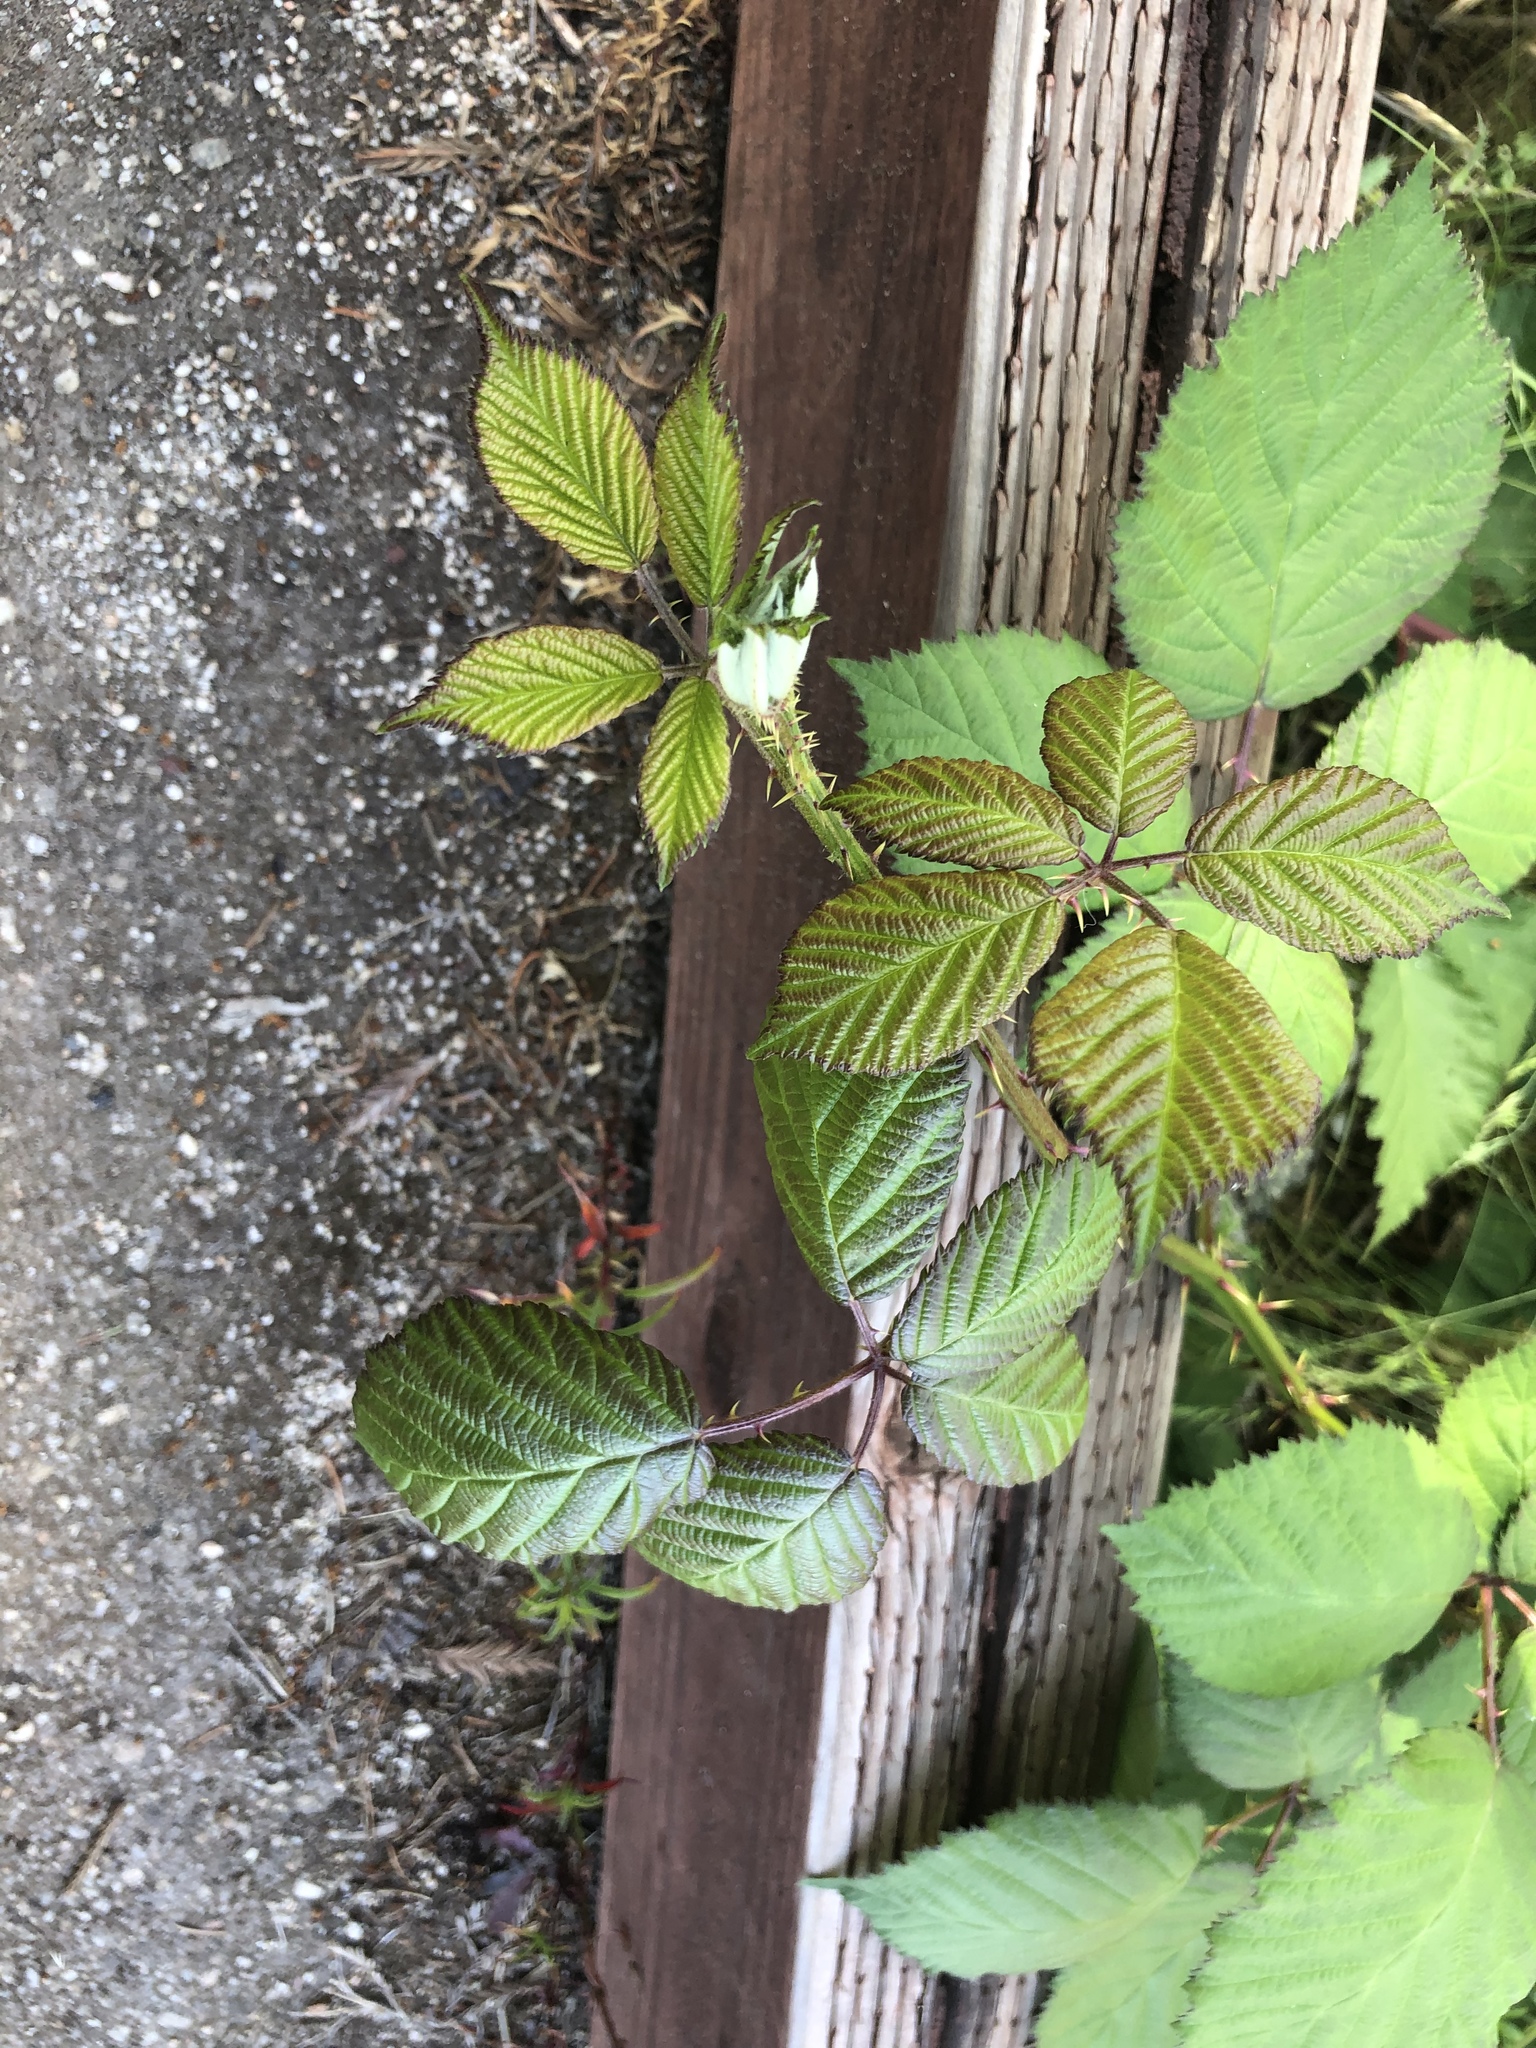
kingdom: Plantae
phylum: Tracheophyta
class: Magnoliopsida
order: Rosales
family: Rosaceae
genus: Rubus
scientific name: Rubus armeniacus
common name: Himalayan blackberry
